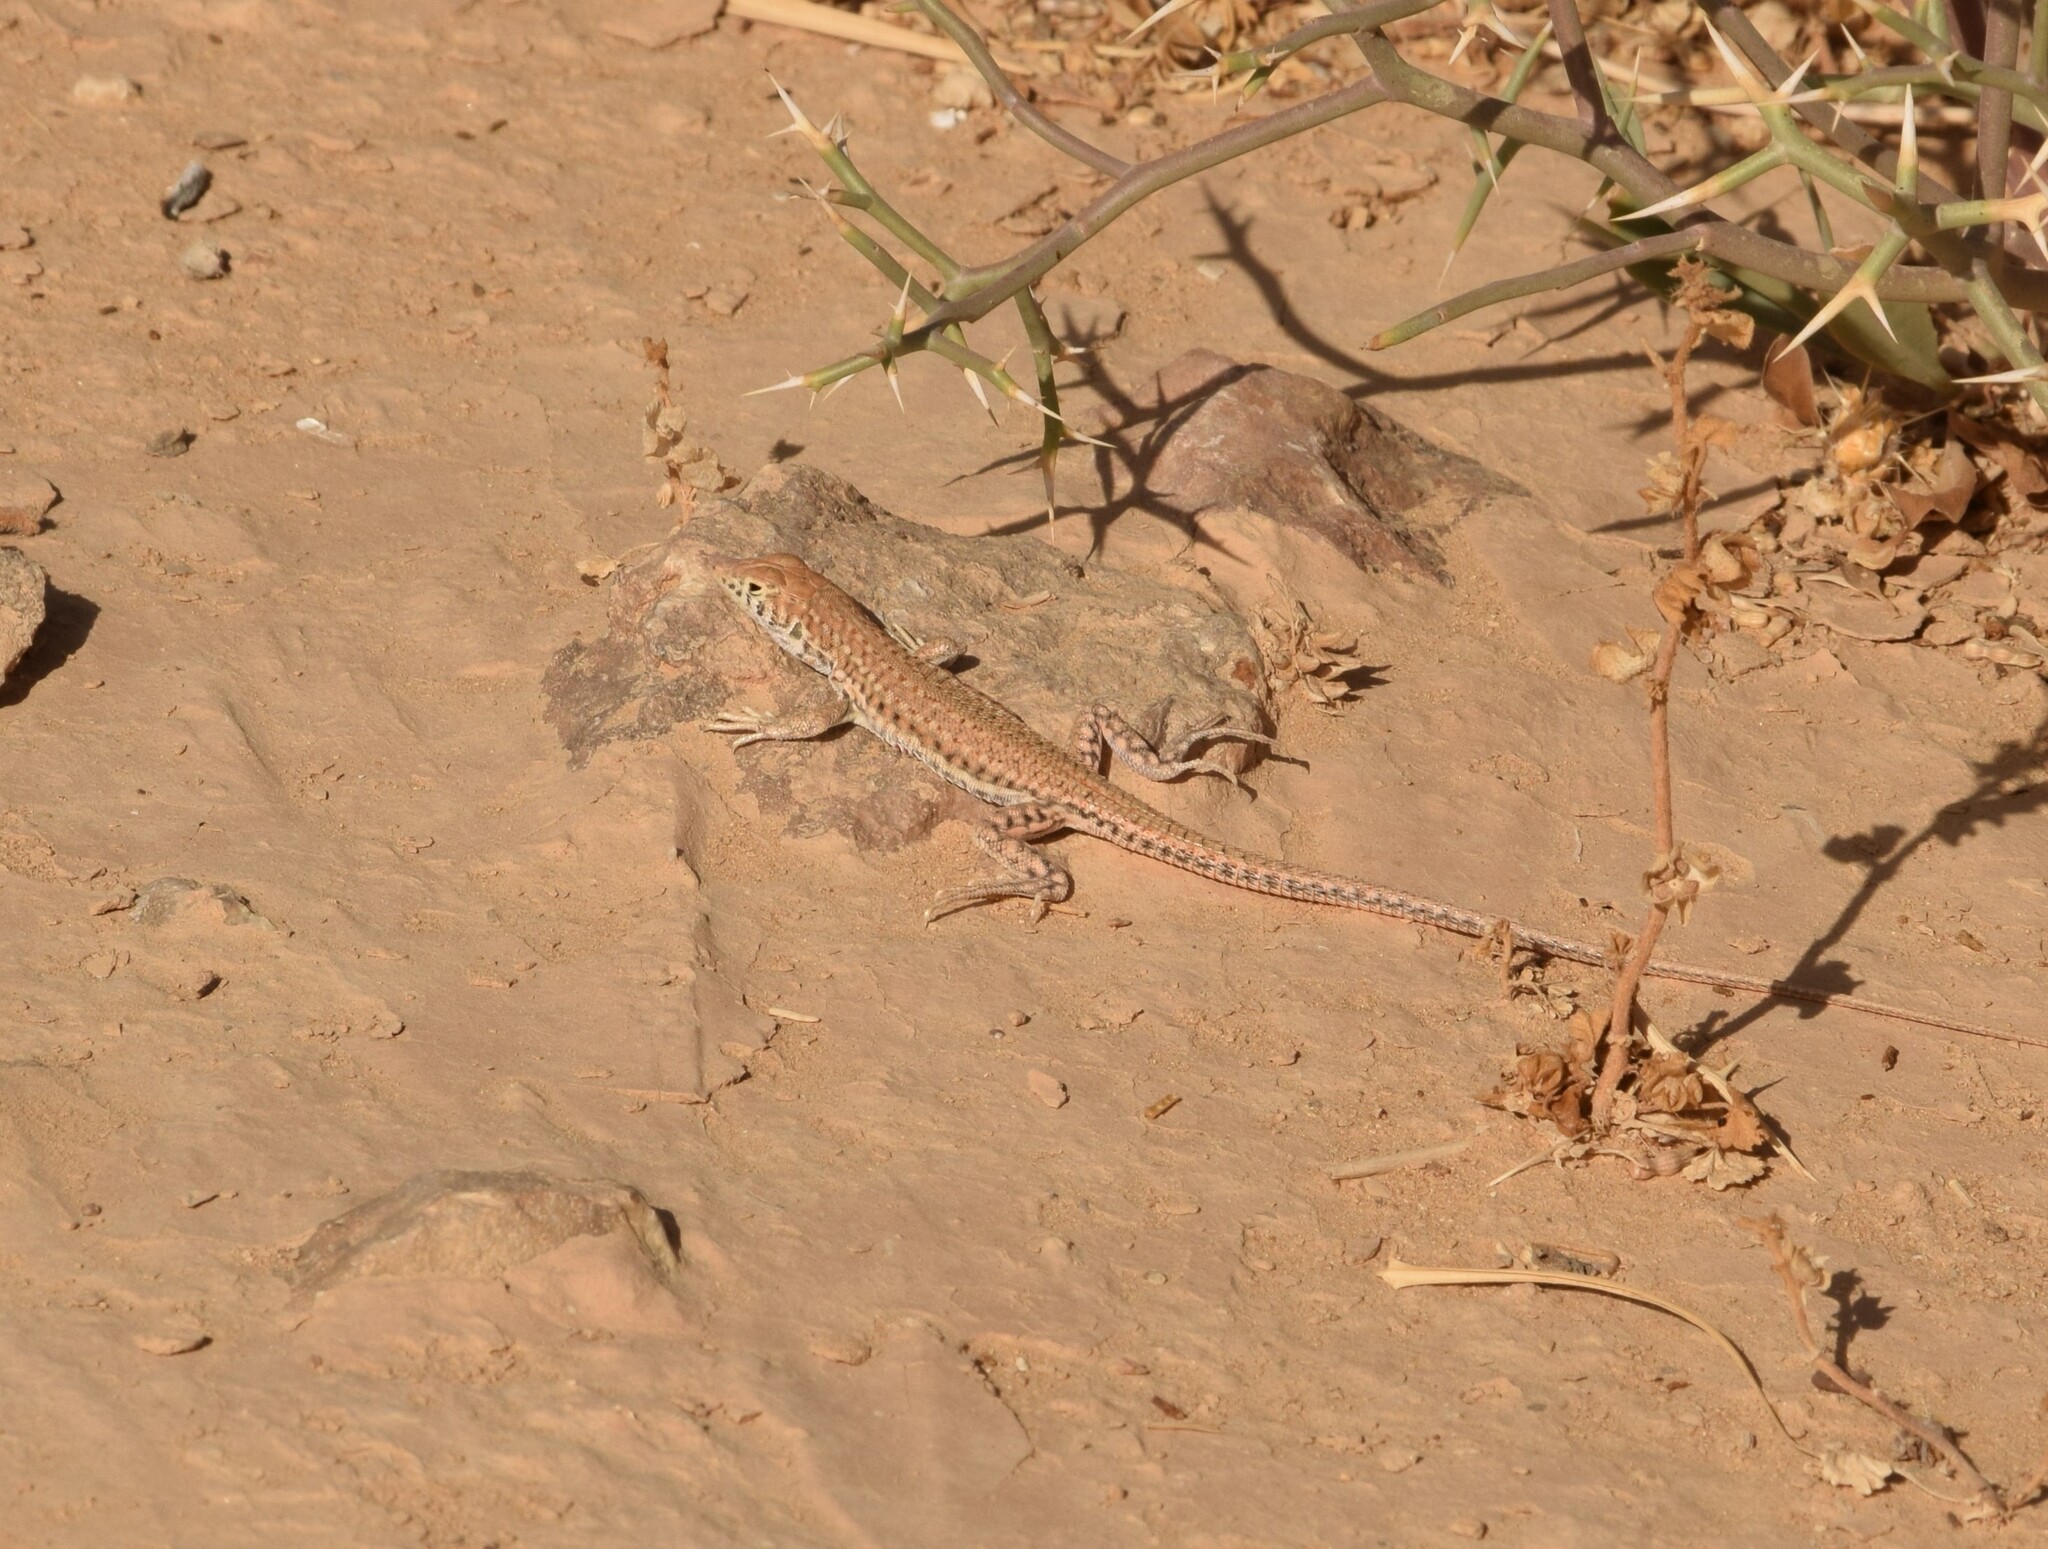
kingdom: Animalia
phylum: Chordata
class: Squamata
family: Lacertidae
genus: Acanthodactylus
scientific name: Acanthodactylus boskianus
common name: Bosc’s fringe-toed lizard
